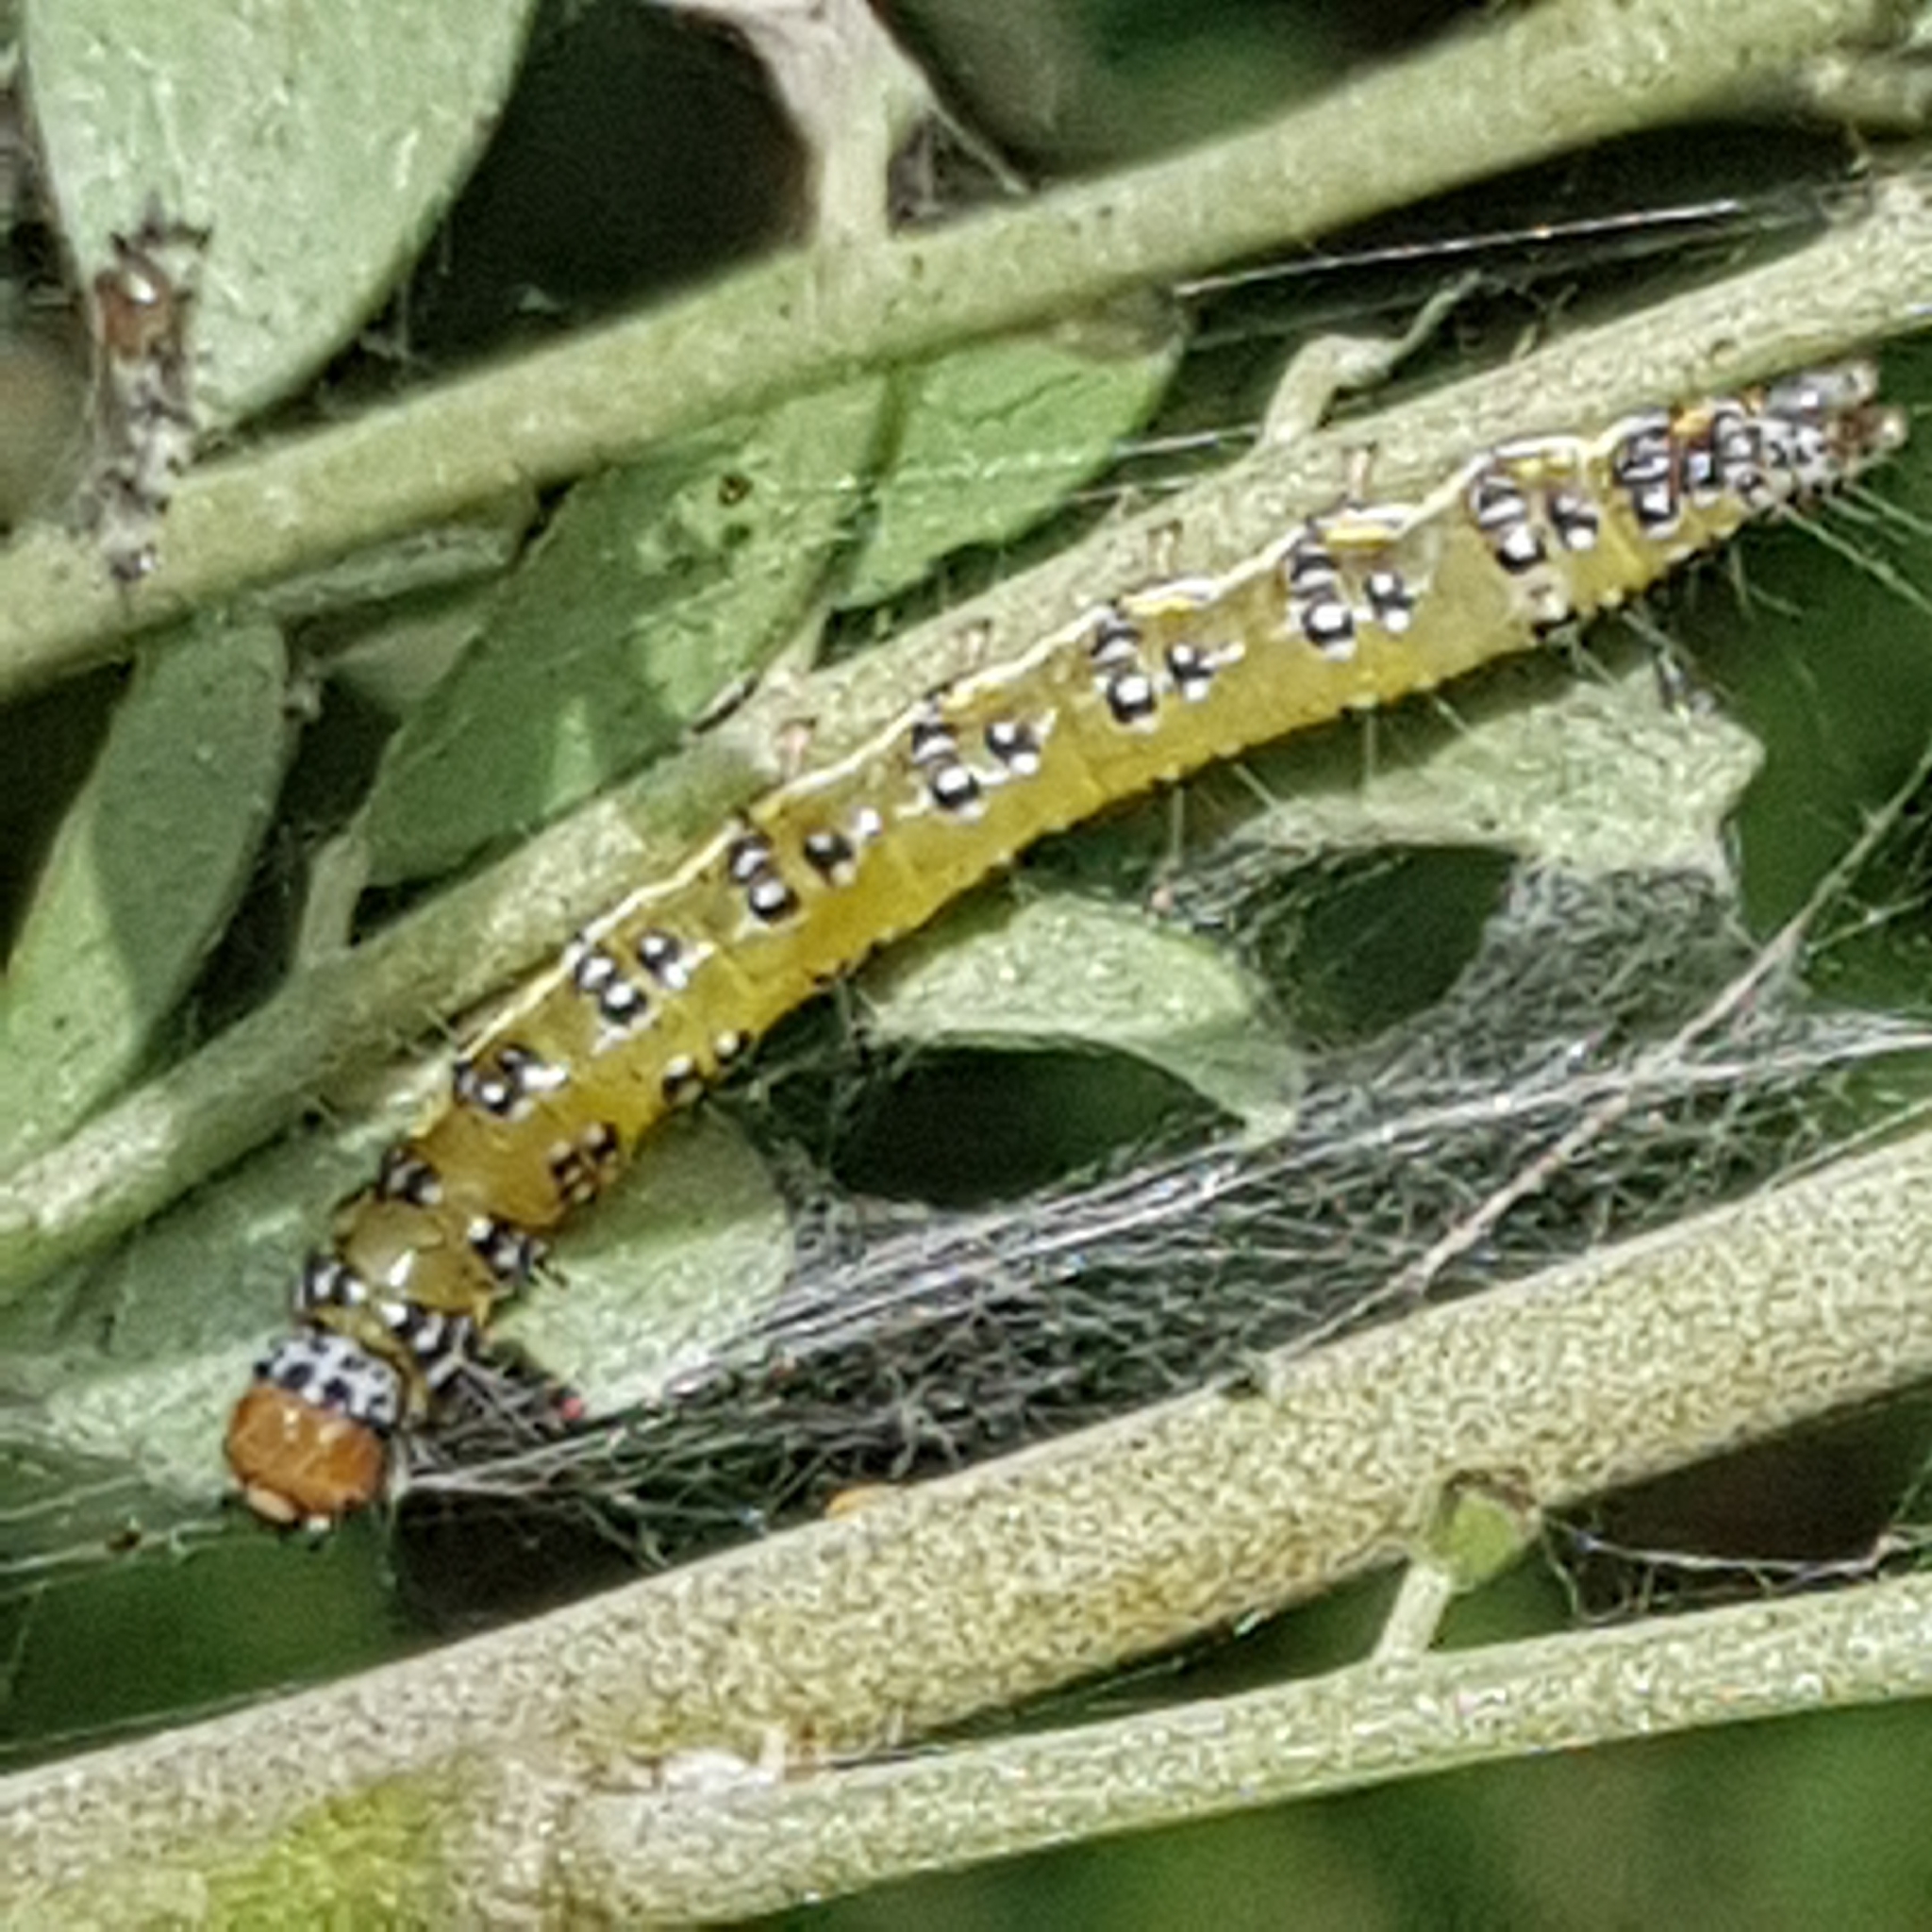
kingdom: Animalia
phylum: Arthropoda
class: Insecta
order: Lepidoptera
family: Crambidae
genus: Uresiphita
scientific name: Uresiphita
